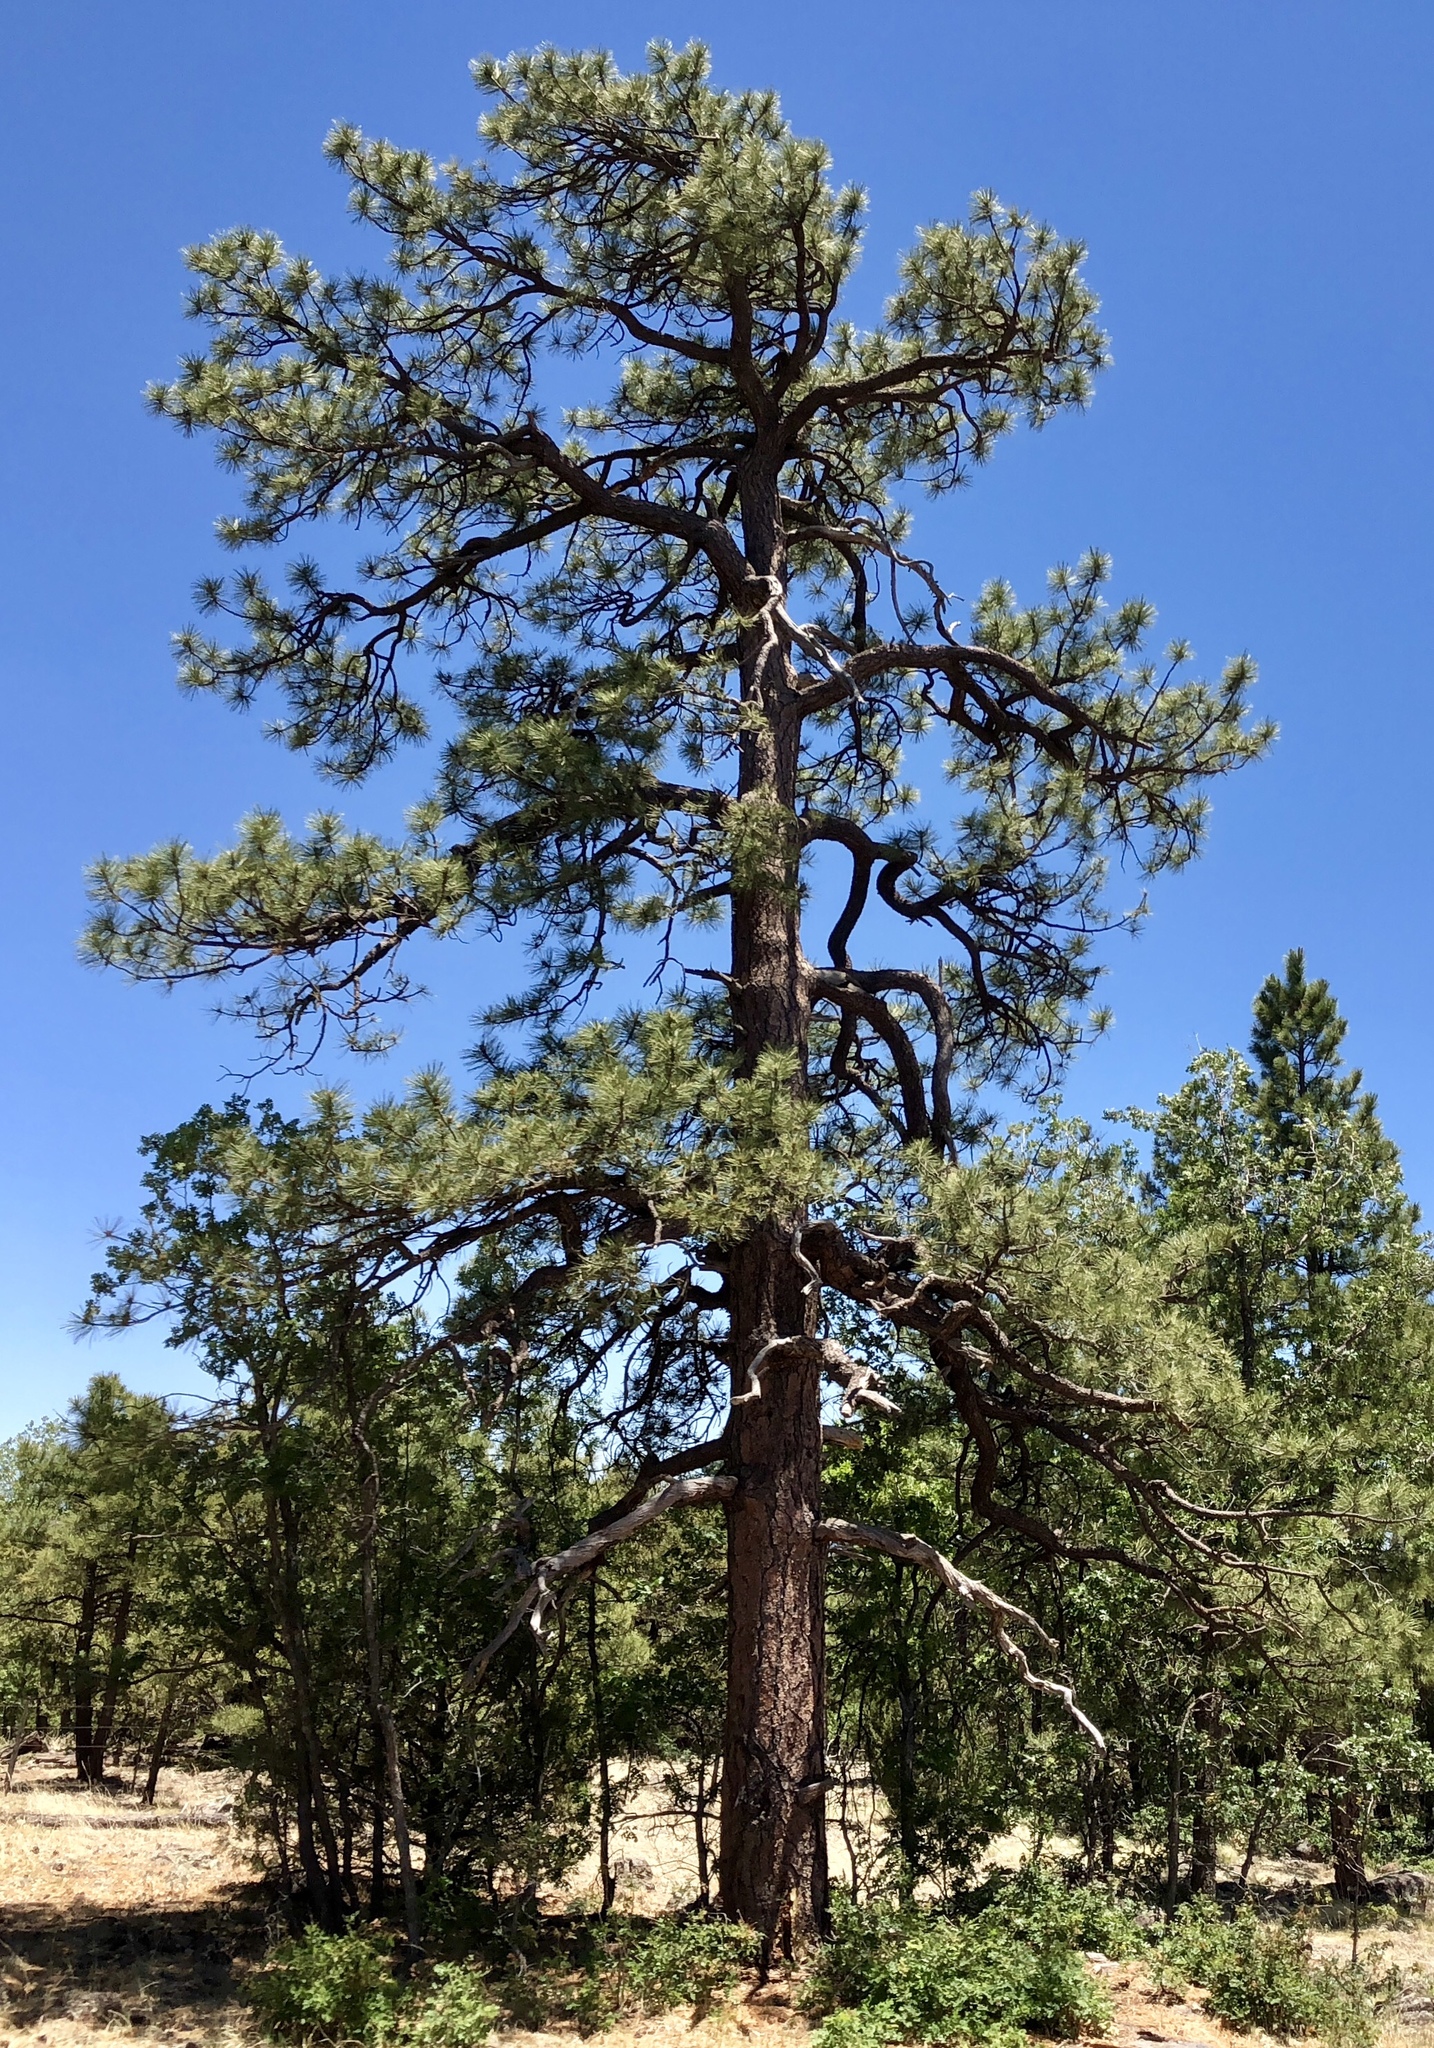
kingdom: Plantae
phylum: Tracheophyta
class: Pinopsida
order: Pinales
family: Pinaceae
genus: Pinus
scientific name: Pinus ponderosa
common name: Western yellow-pine
